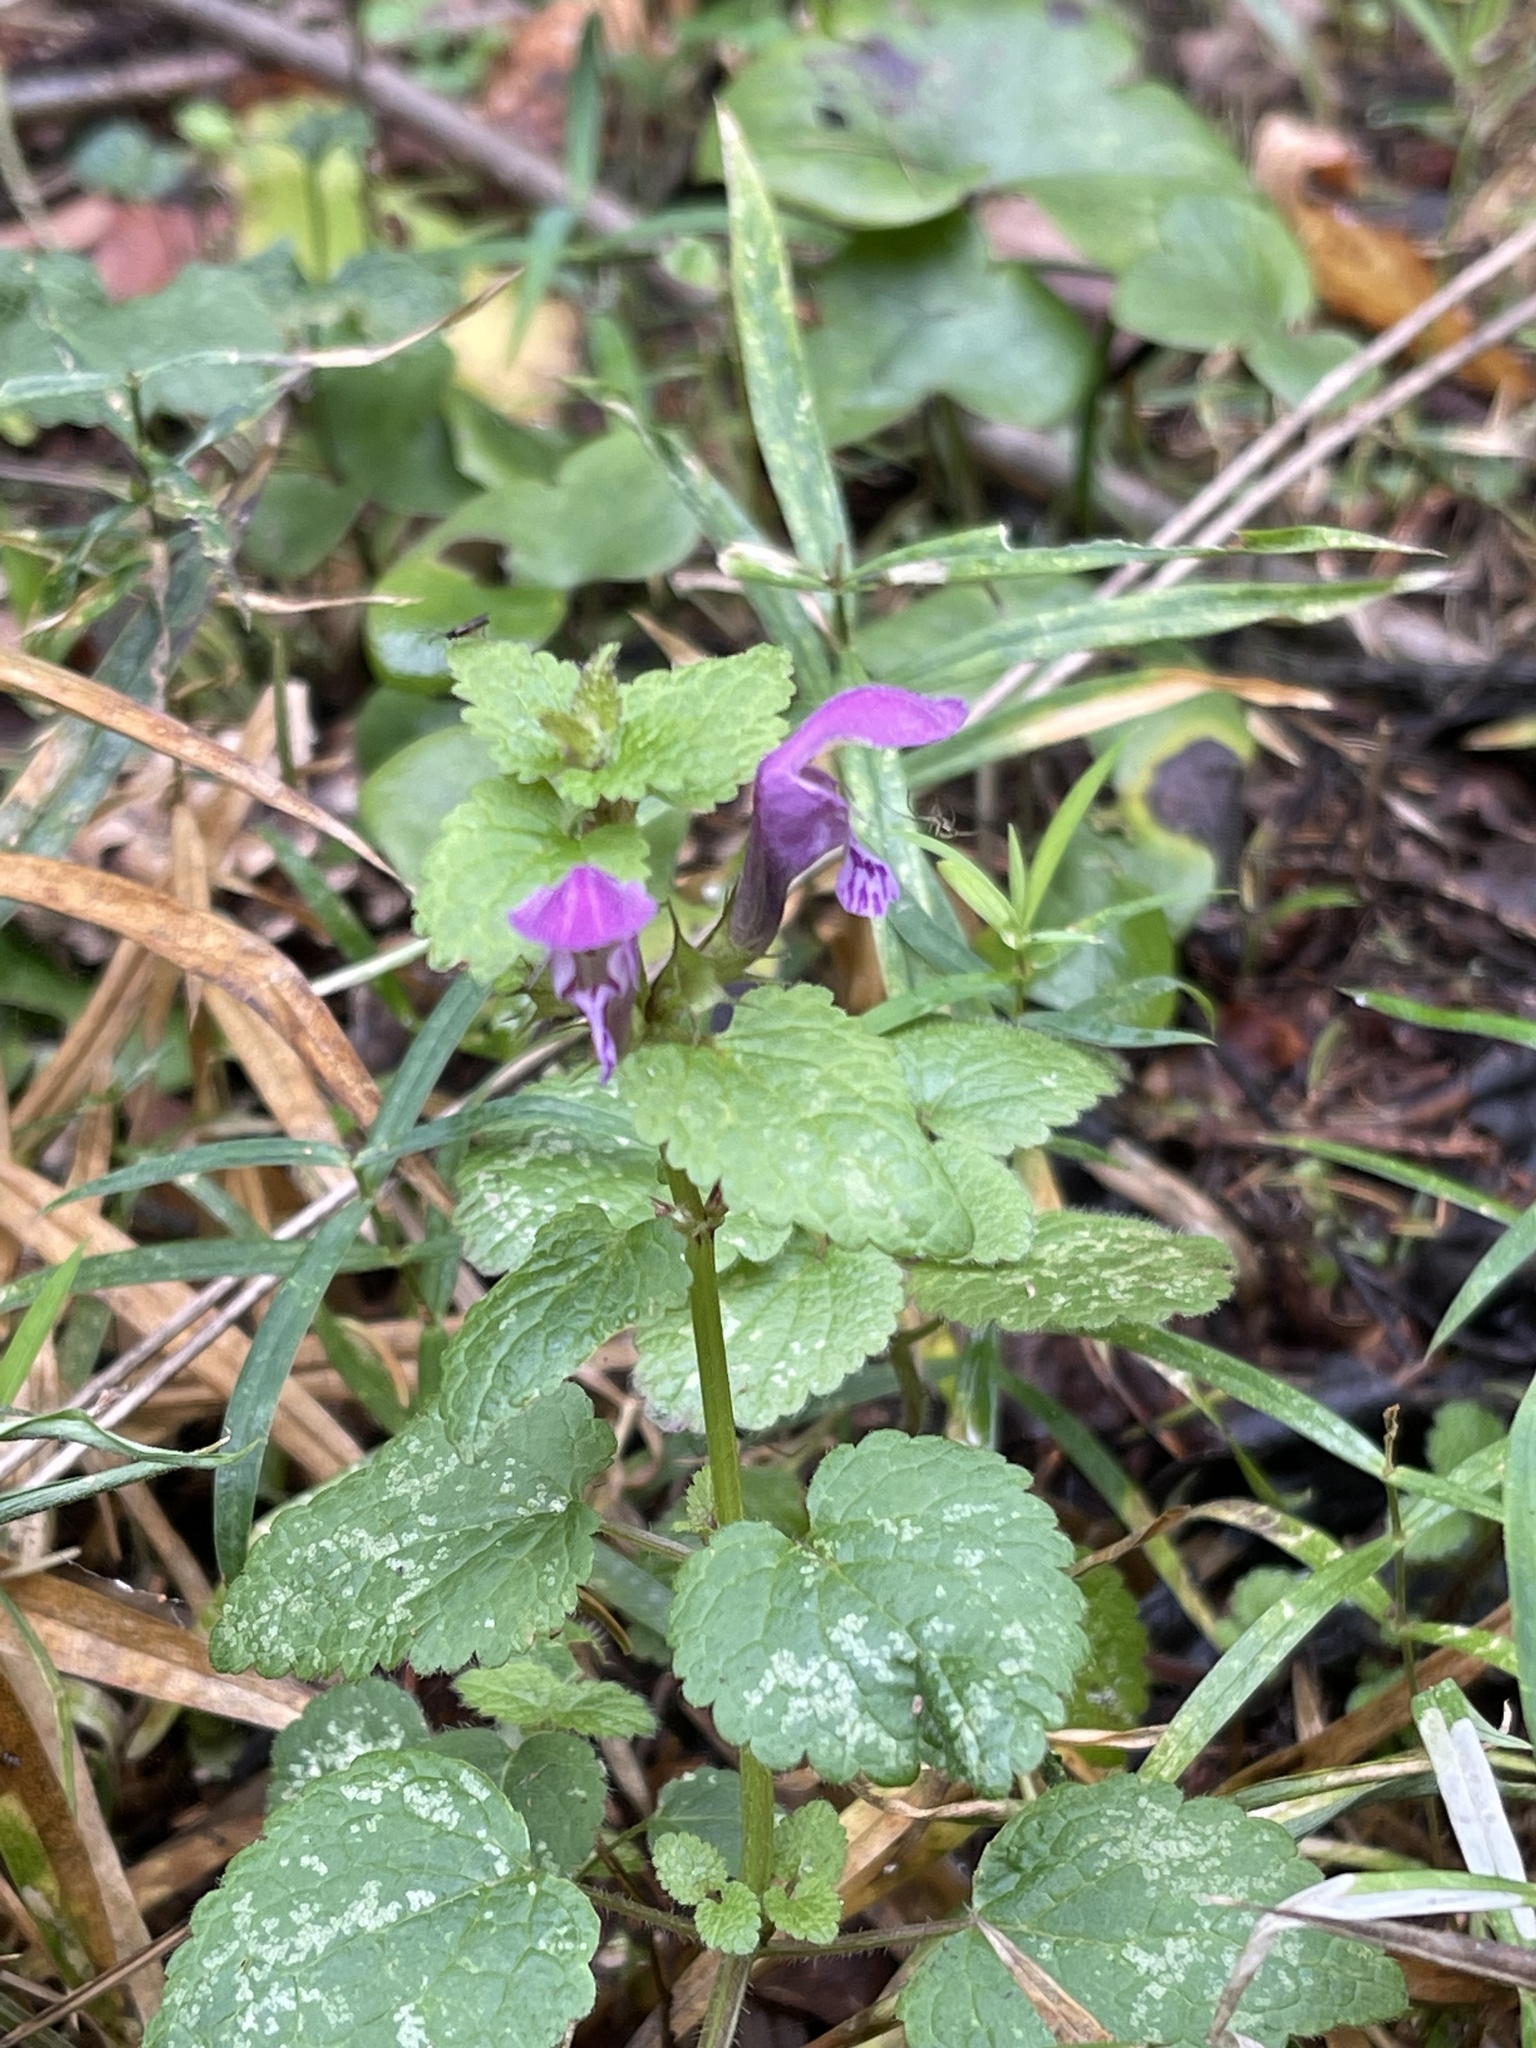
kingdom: Plantae
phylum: Tracheophyta
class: Magnoliopsida
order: Lamiales
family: Lamiaceae
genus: Lamium
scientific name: Lamium maculatum
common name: Spotted dead-nettle
